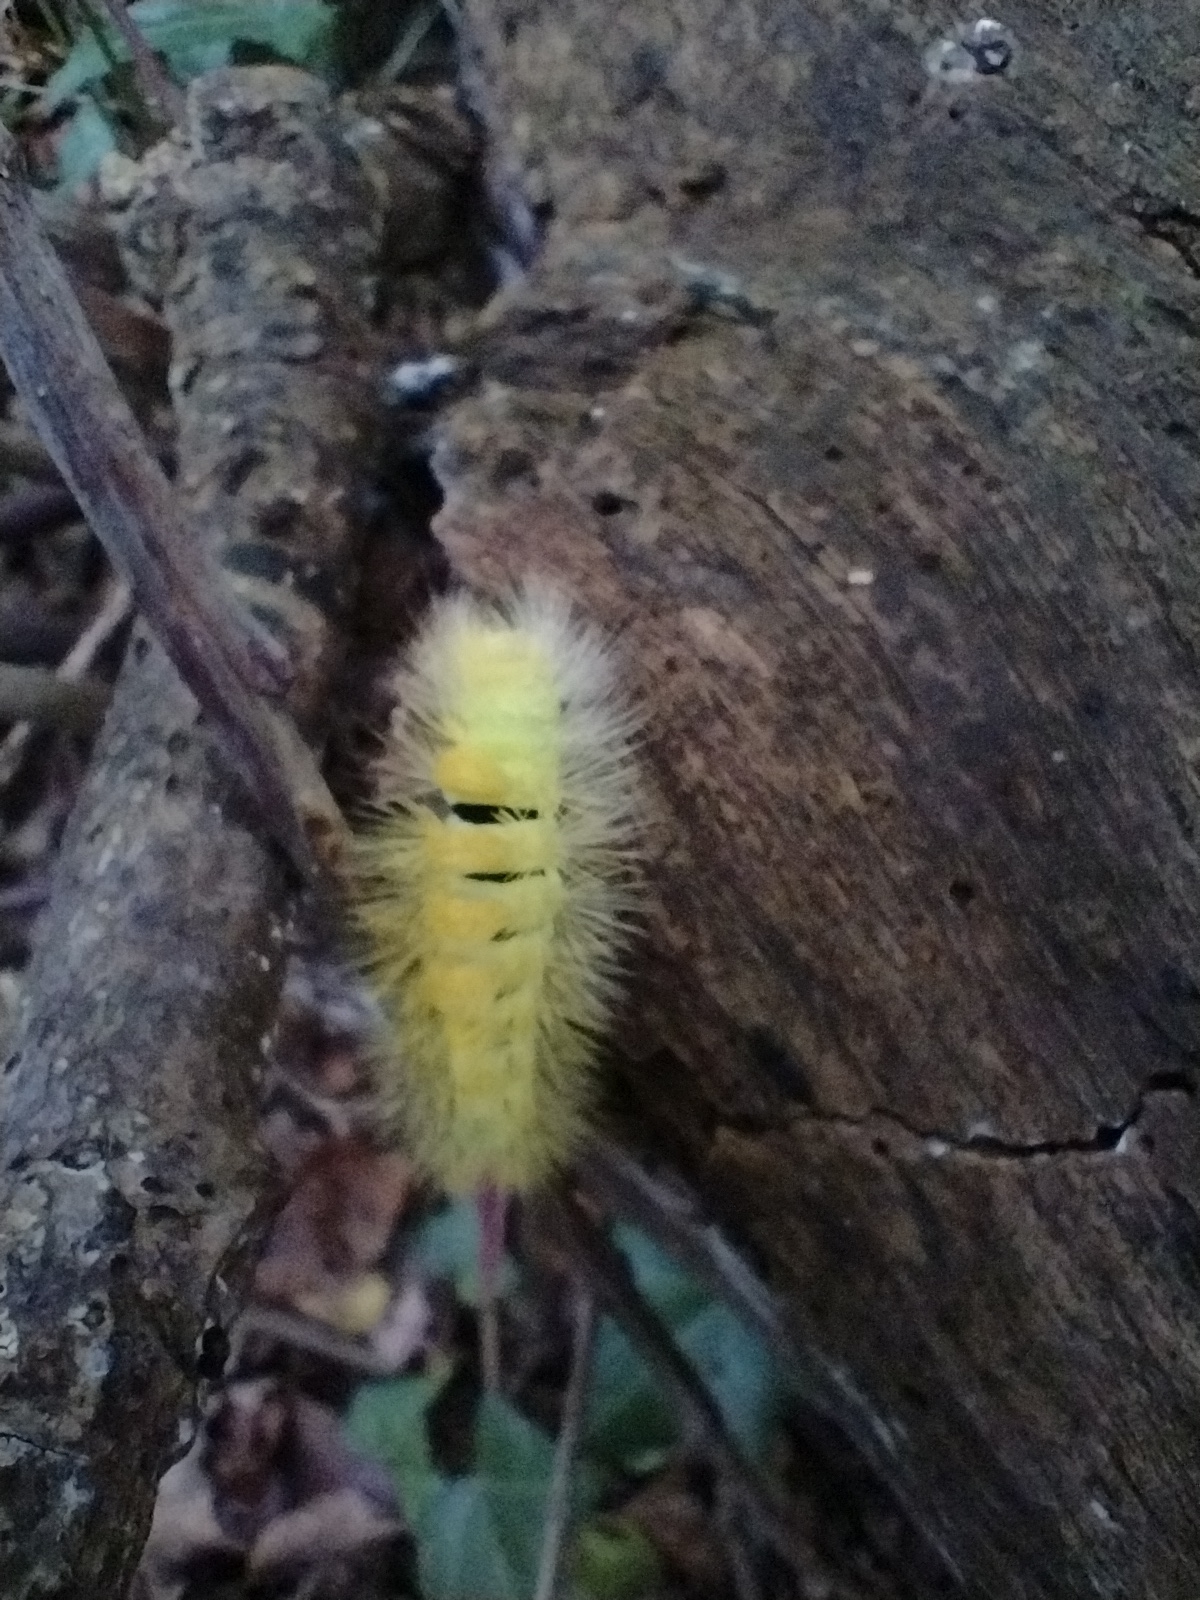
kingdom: Animalia
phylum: Arthropoda
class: Insecta
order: Lepidoptera
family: Erebidae
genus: Calliteara
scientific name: Calliteara pudibunda
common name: Pale tussock
